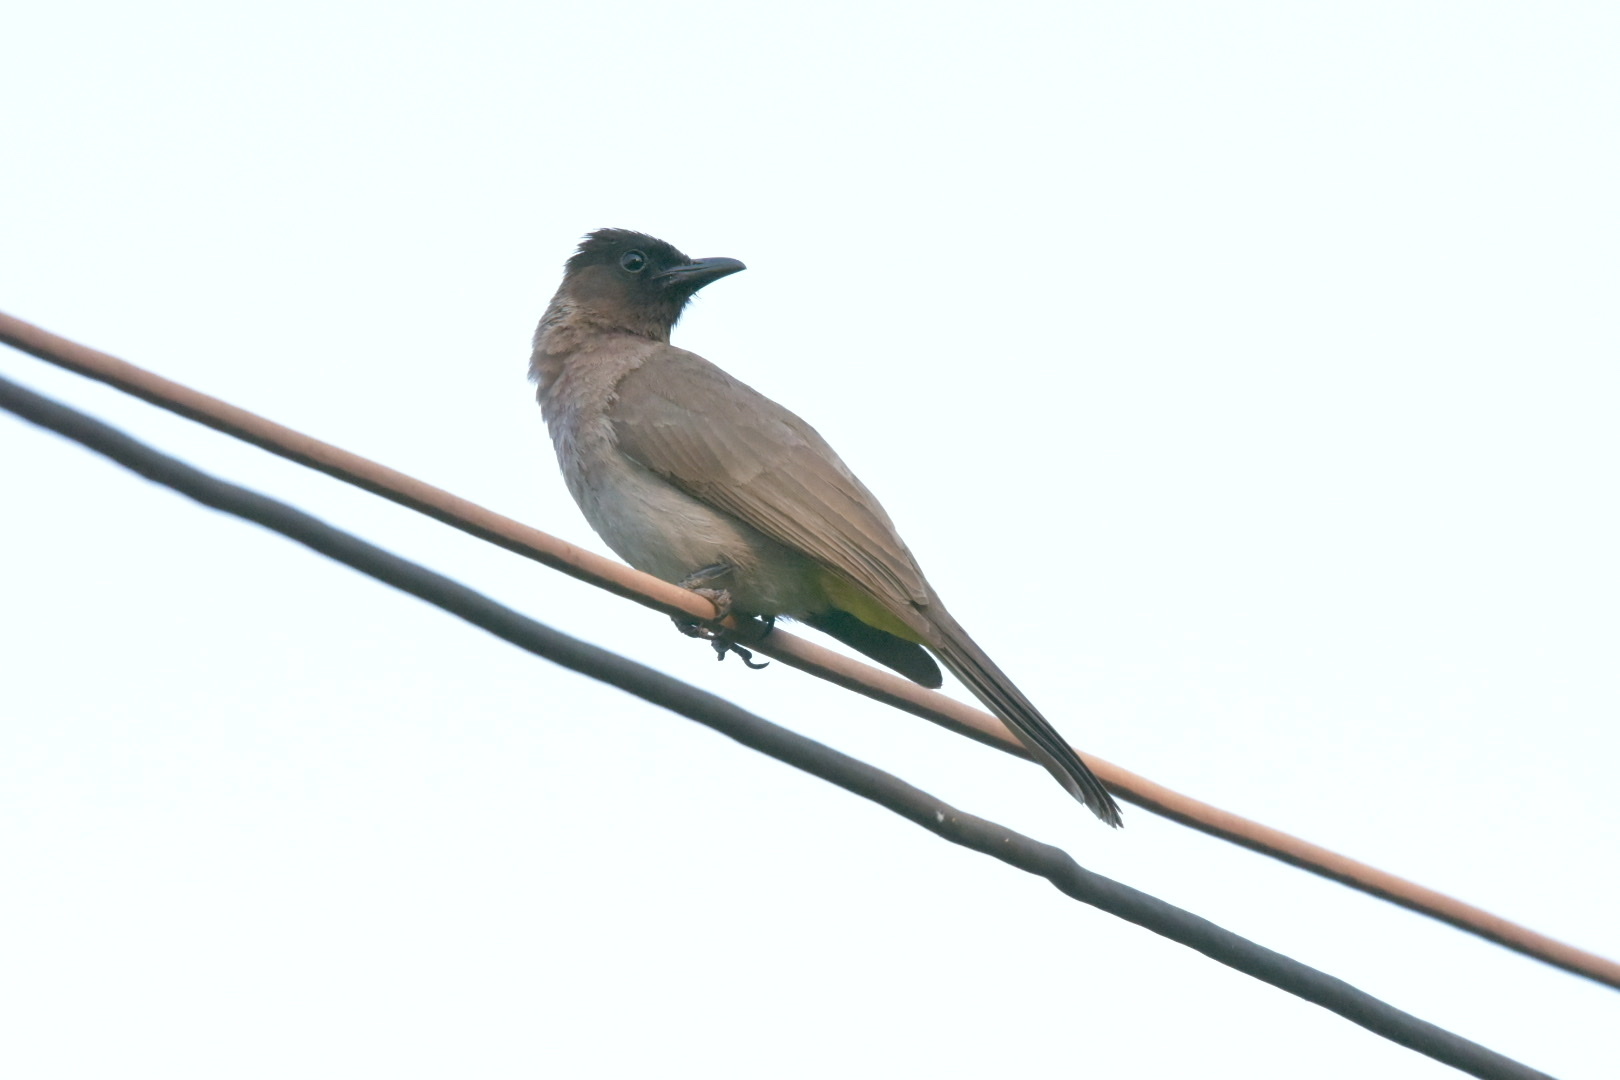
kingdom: Animalia
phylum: Chordata
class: Aves
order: Passeriformes
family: Pycnonotidae
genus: Pycnonotus
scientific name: Pycnonotus barbatus
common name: Common bulbul
